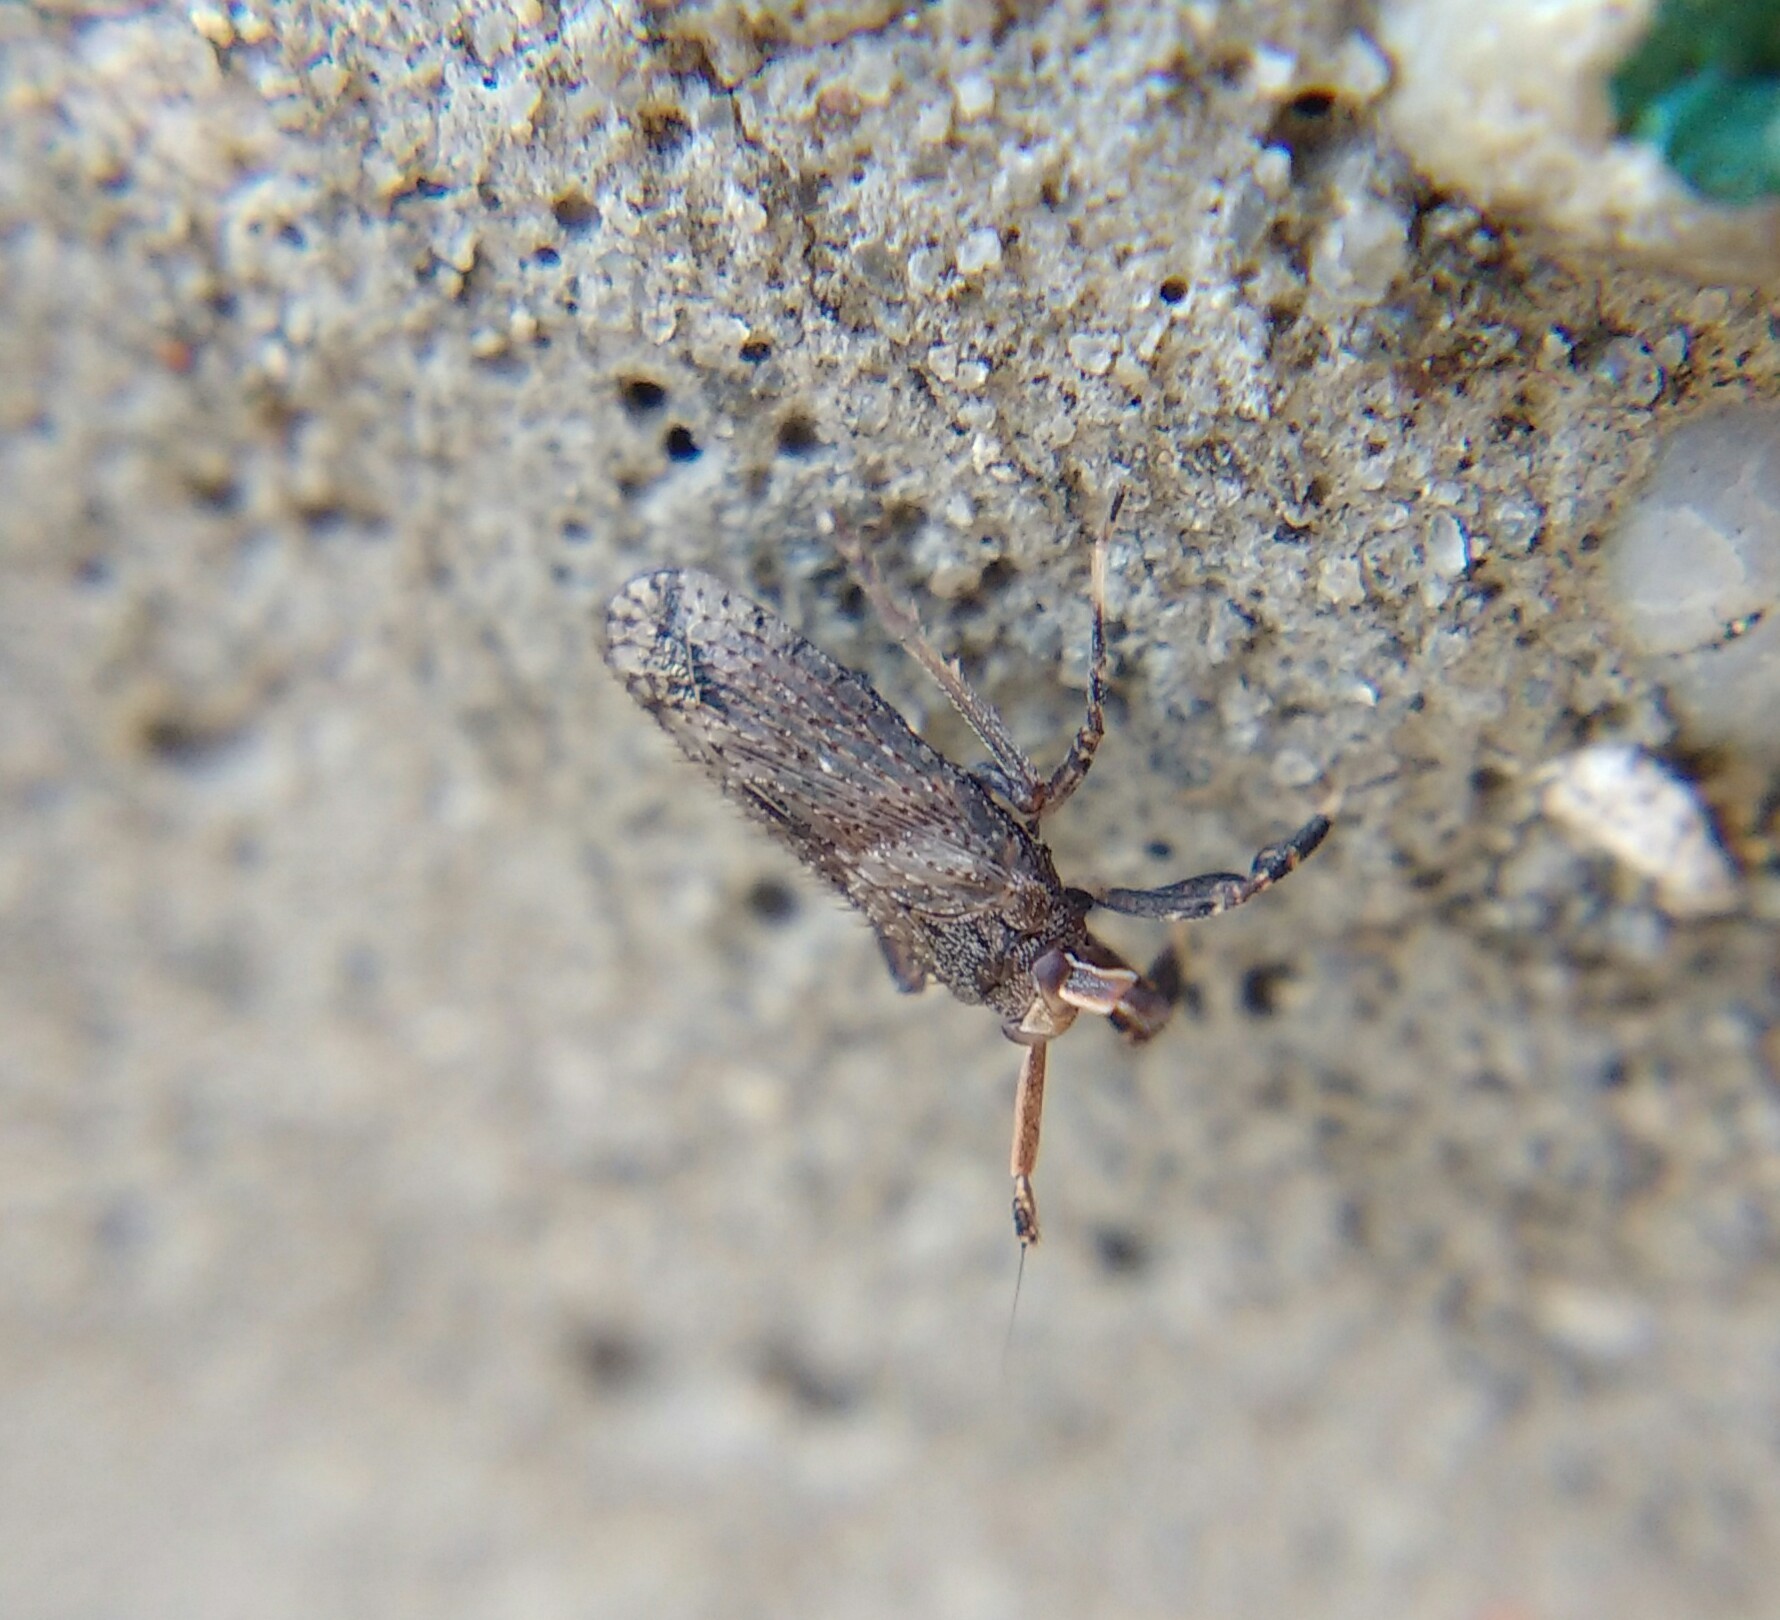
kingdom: Animalia
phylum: Arthropoda
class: Insecta
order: Hemiptera
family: Delphacidae
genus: Asiraca
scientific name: Asiraca clavicornis
